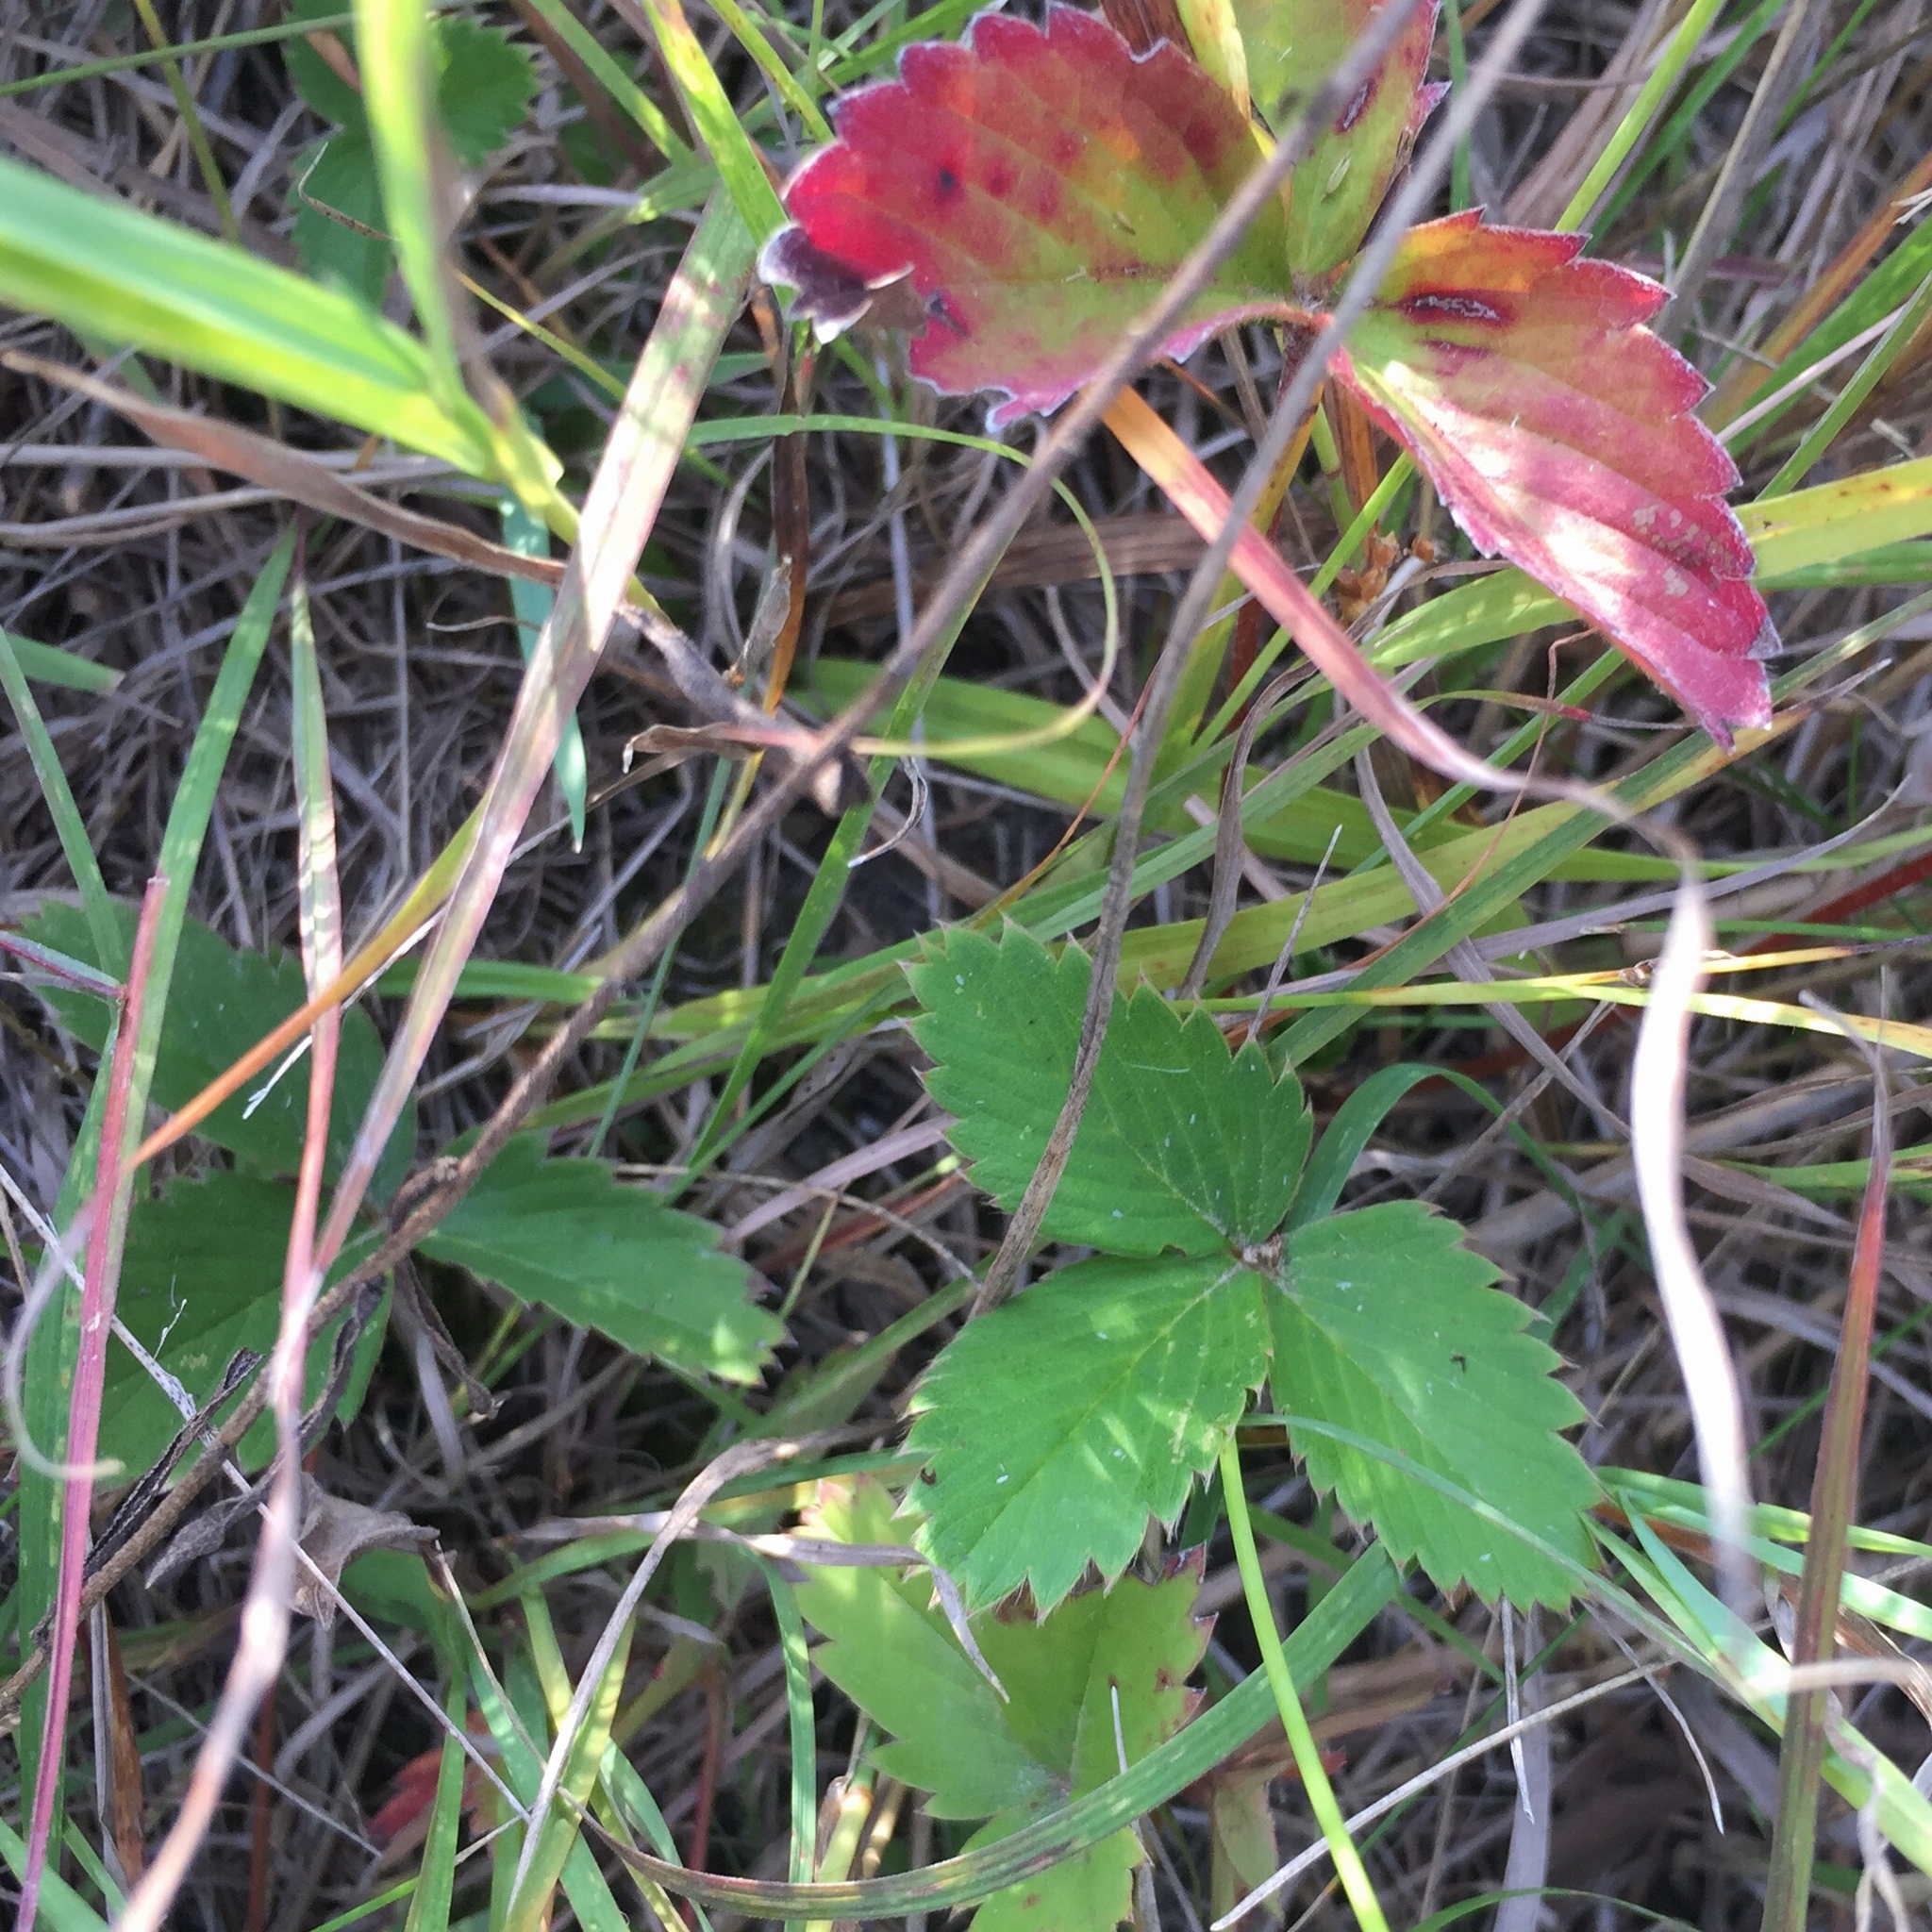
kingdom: Plantae
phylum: Tracheophyta
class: Magnoliopsida
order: Rosales
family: Rosaceae
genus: Fragaria
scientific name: Fragaria virginiana
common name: Thickleaved wild strawberry
